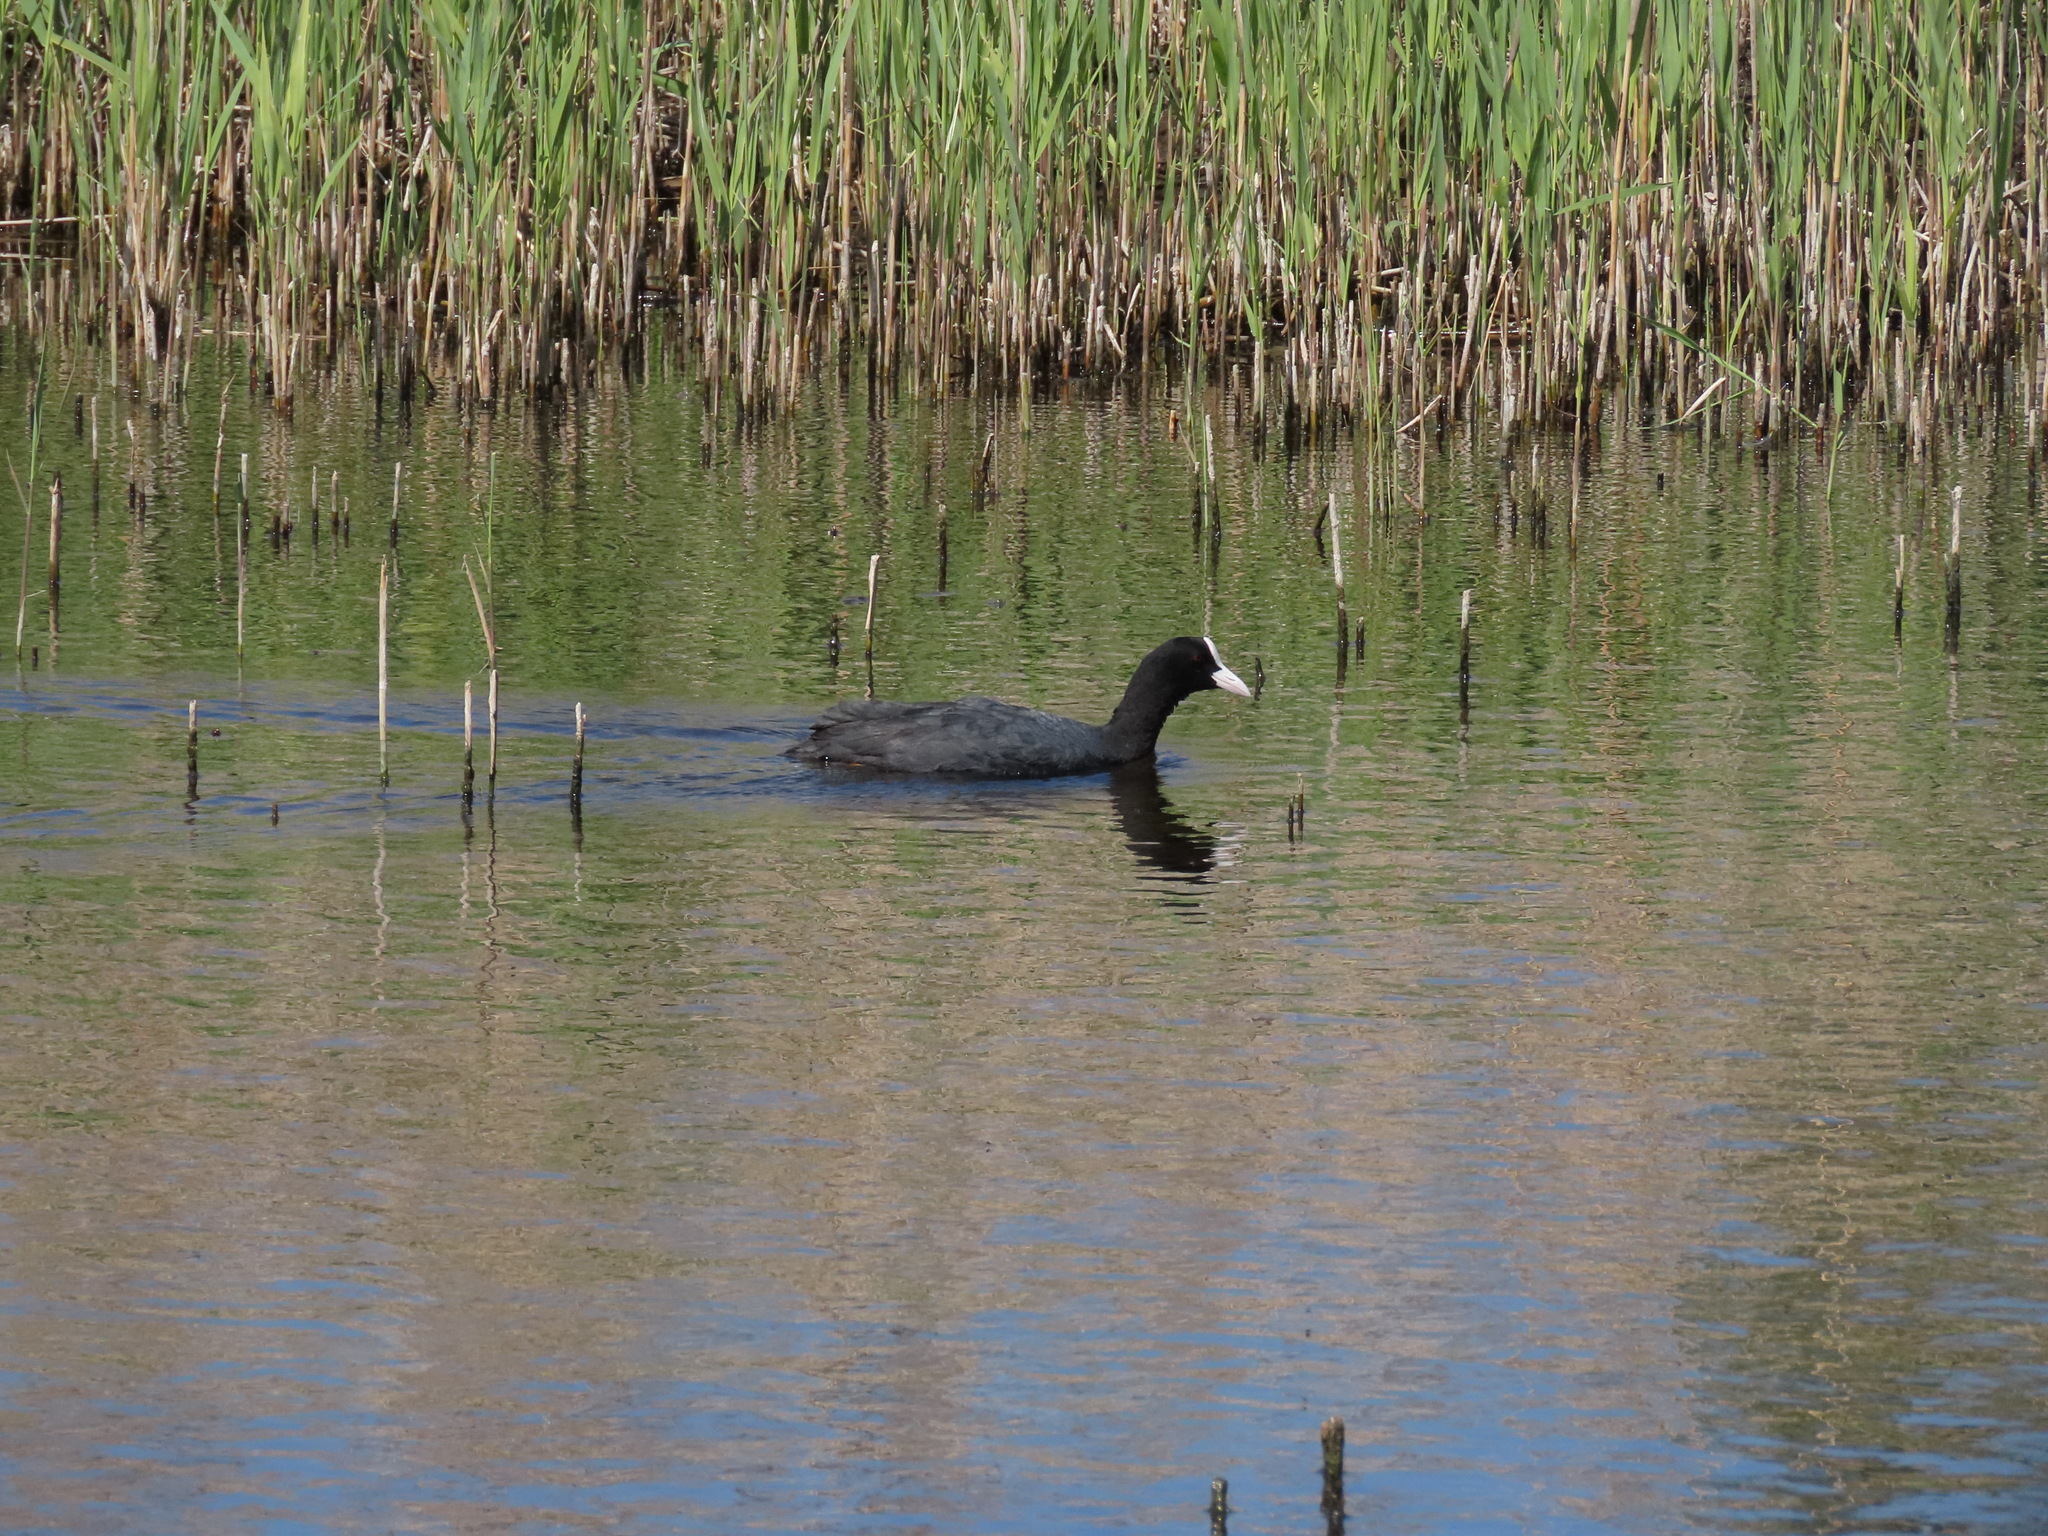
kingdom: Animalia
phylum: Chordata
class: Aves
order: Gruiformes
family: Rallidae
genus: Fulica
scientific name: Fulica atra
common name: Eurasian coot
